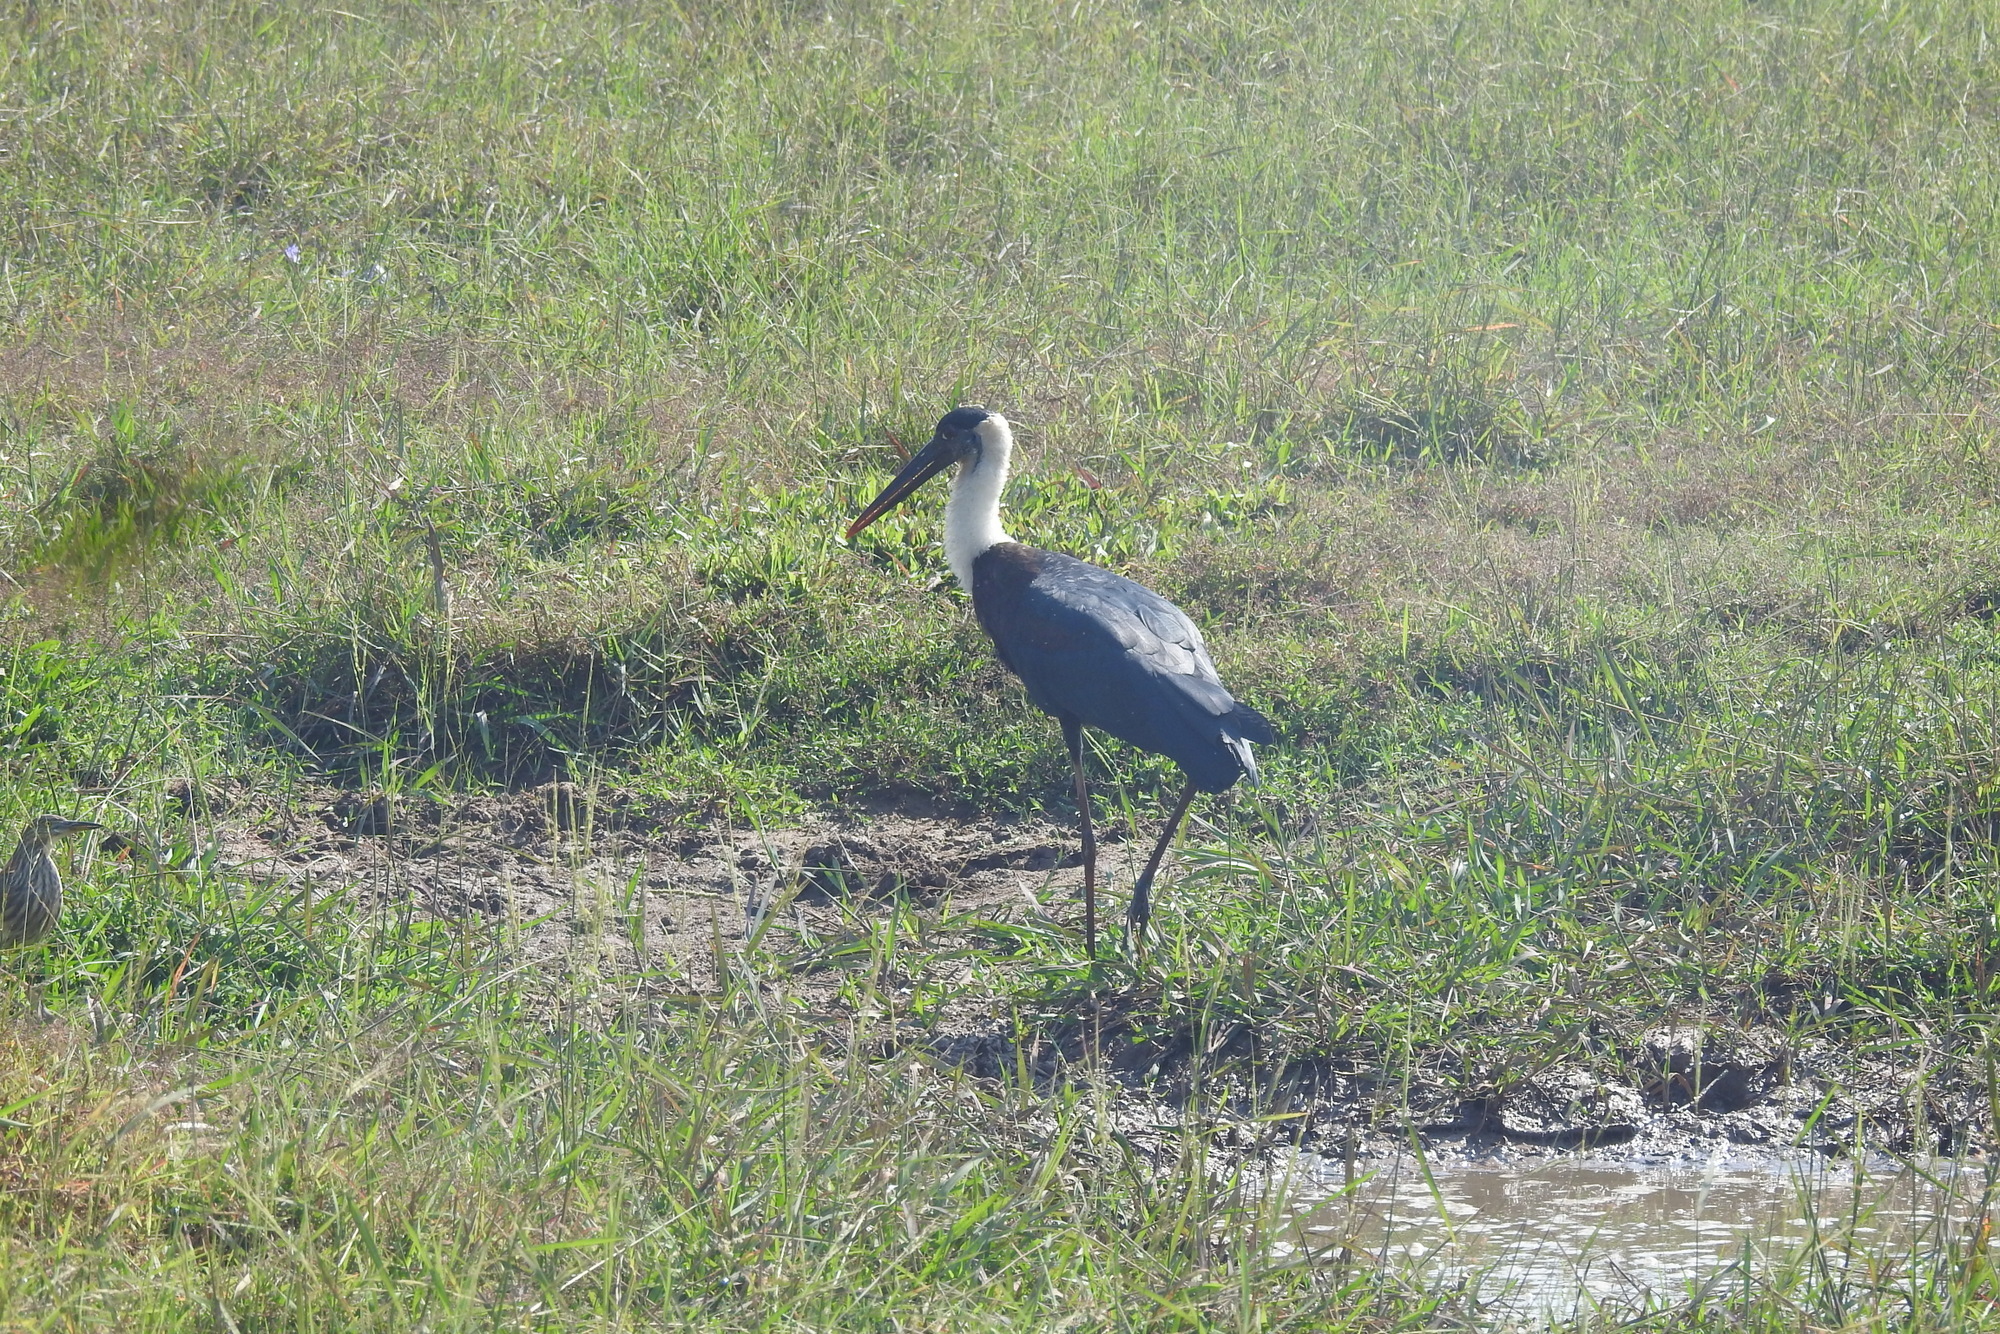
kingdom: Animalia
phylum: Chordata
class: Aves
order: Ciconiiformes
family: Ciconiidae
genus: Ciconia
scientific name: Ciconia episcopus
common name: Woolly-necked stork
